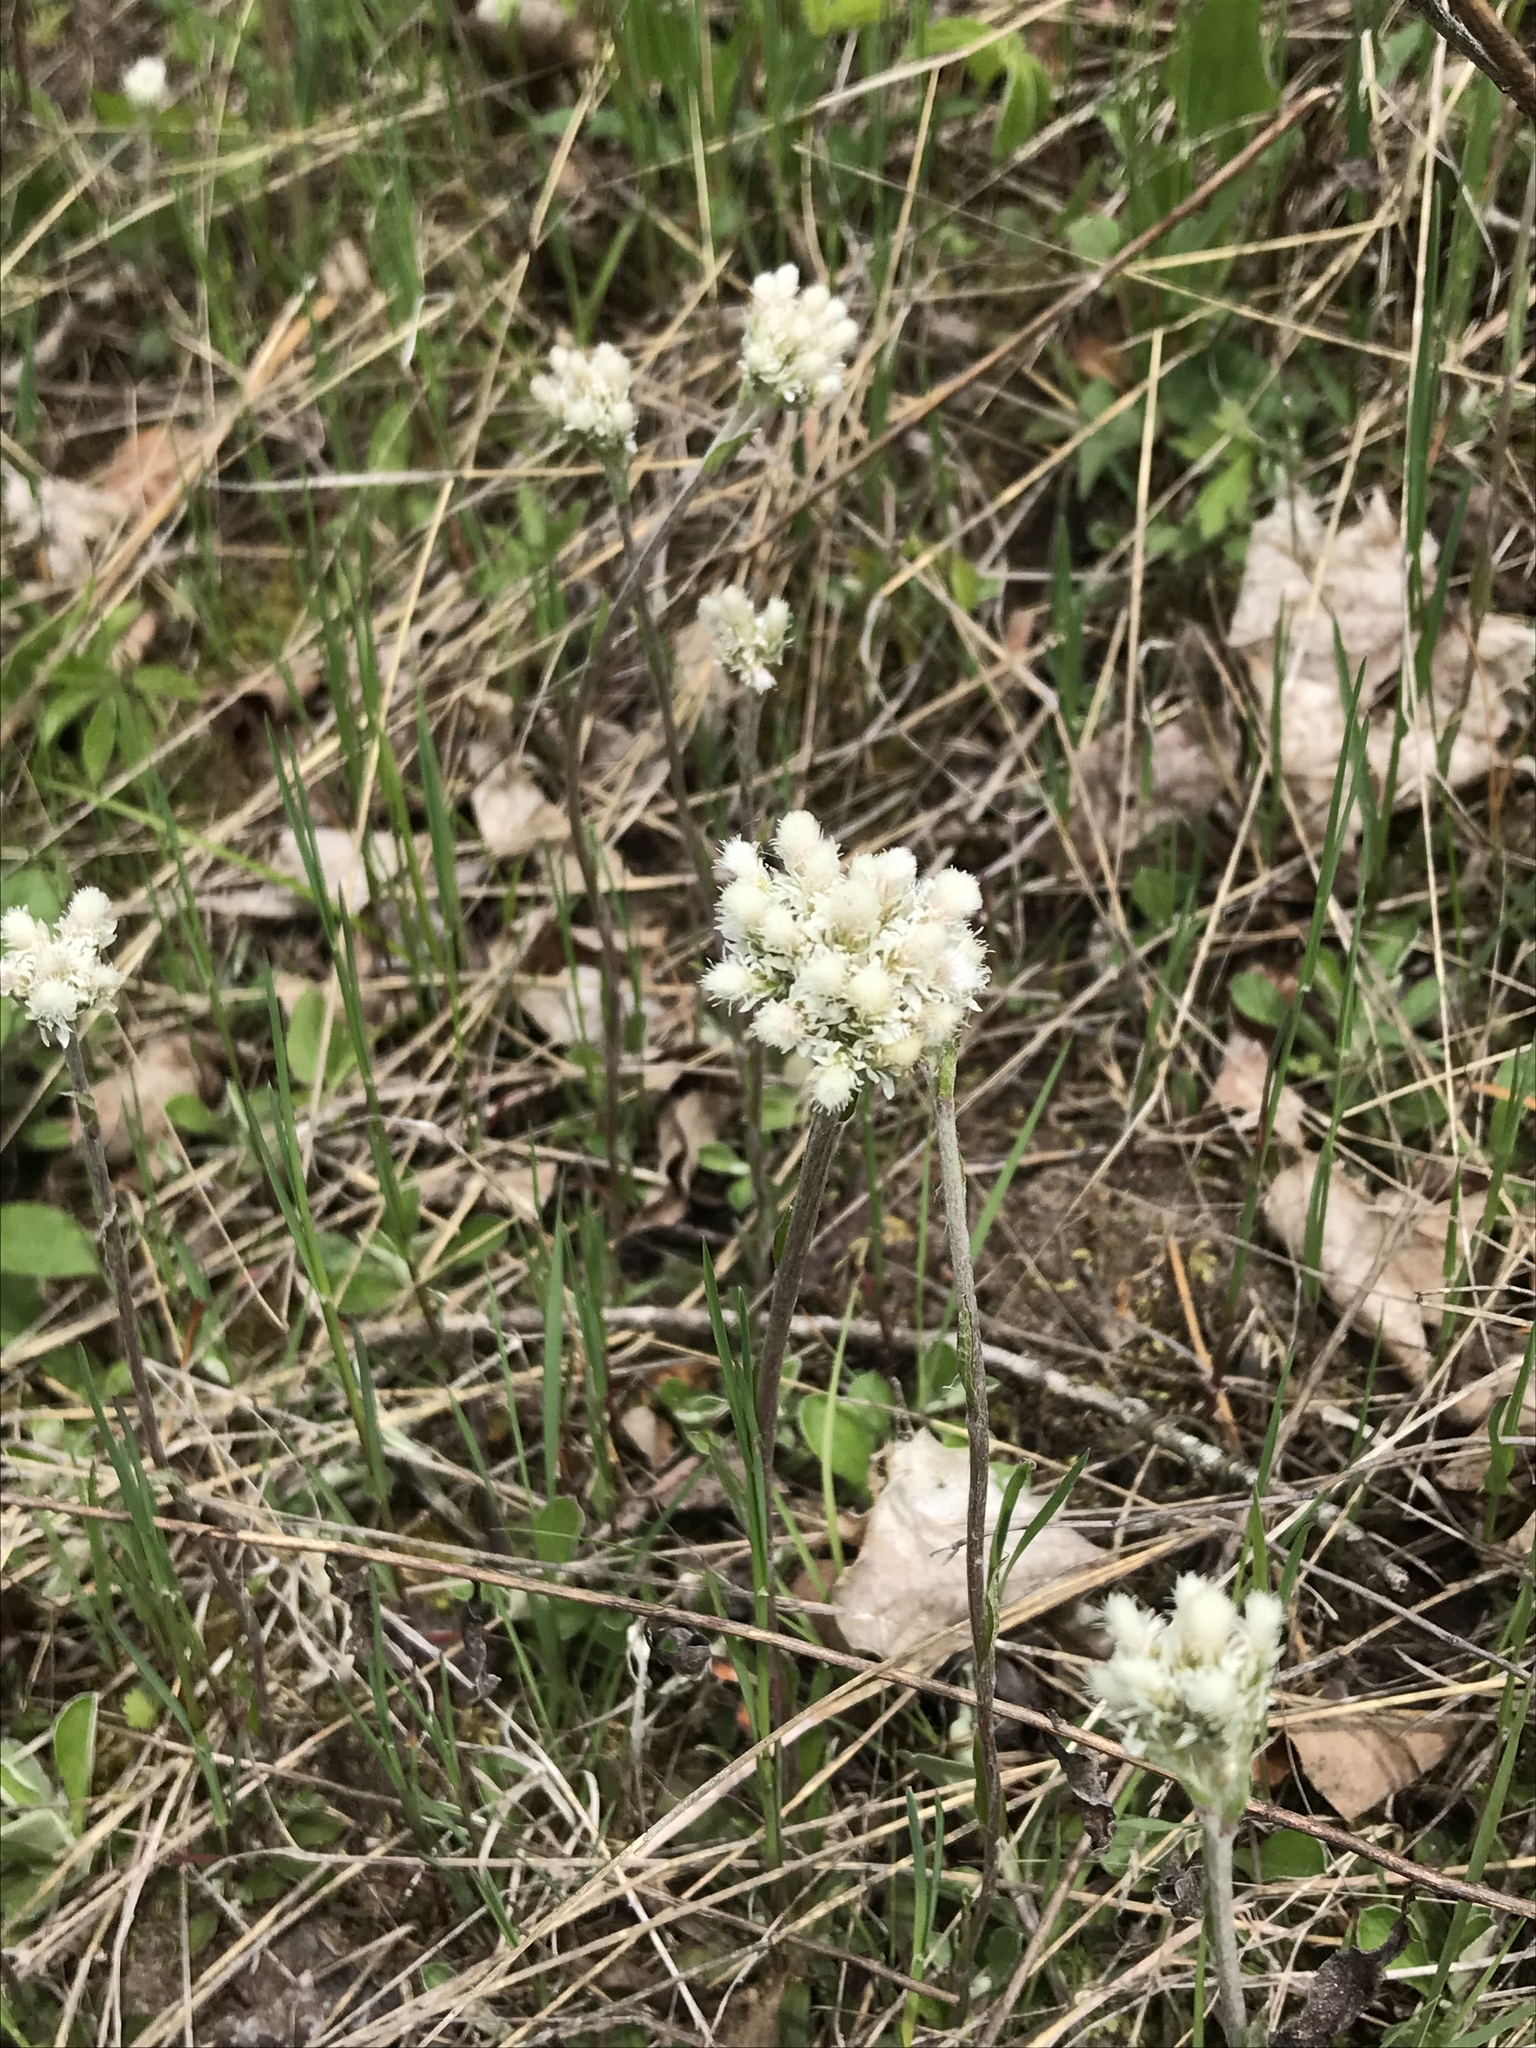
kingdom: Plantae
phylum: Tracheophyta
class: Magnoliopsida
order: Asterales
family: Asteraceae
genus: Antennaria
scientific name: Antennaria howellii
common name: Howell's pussytoes
